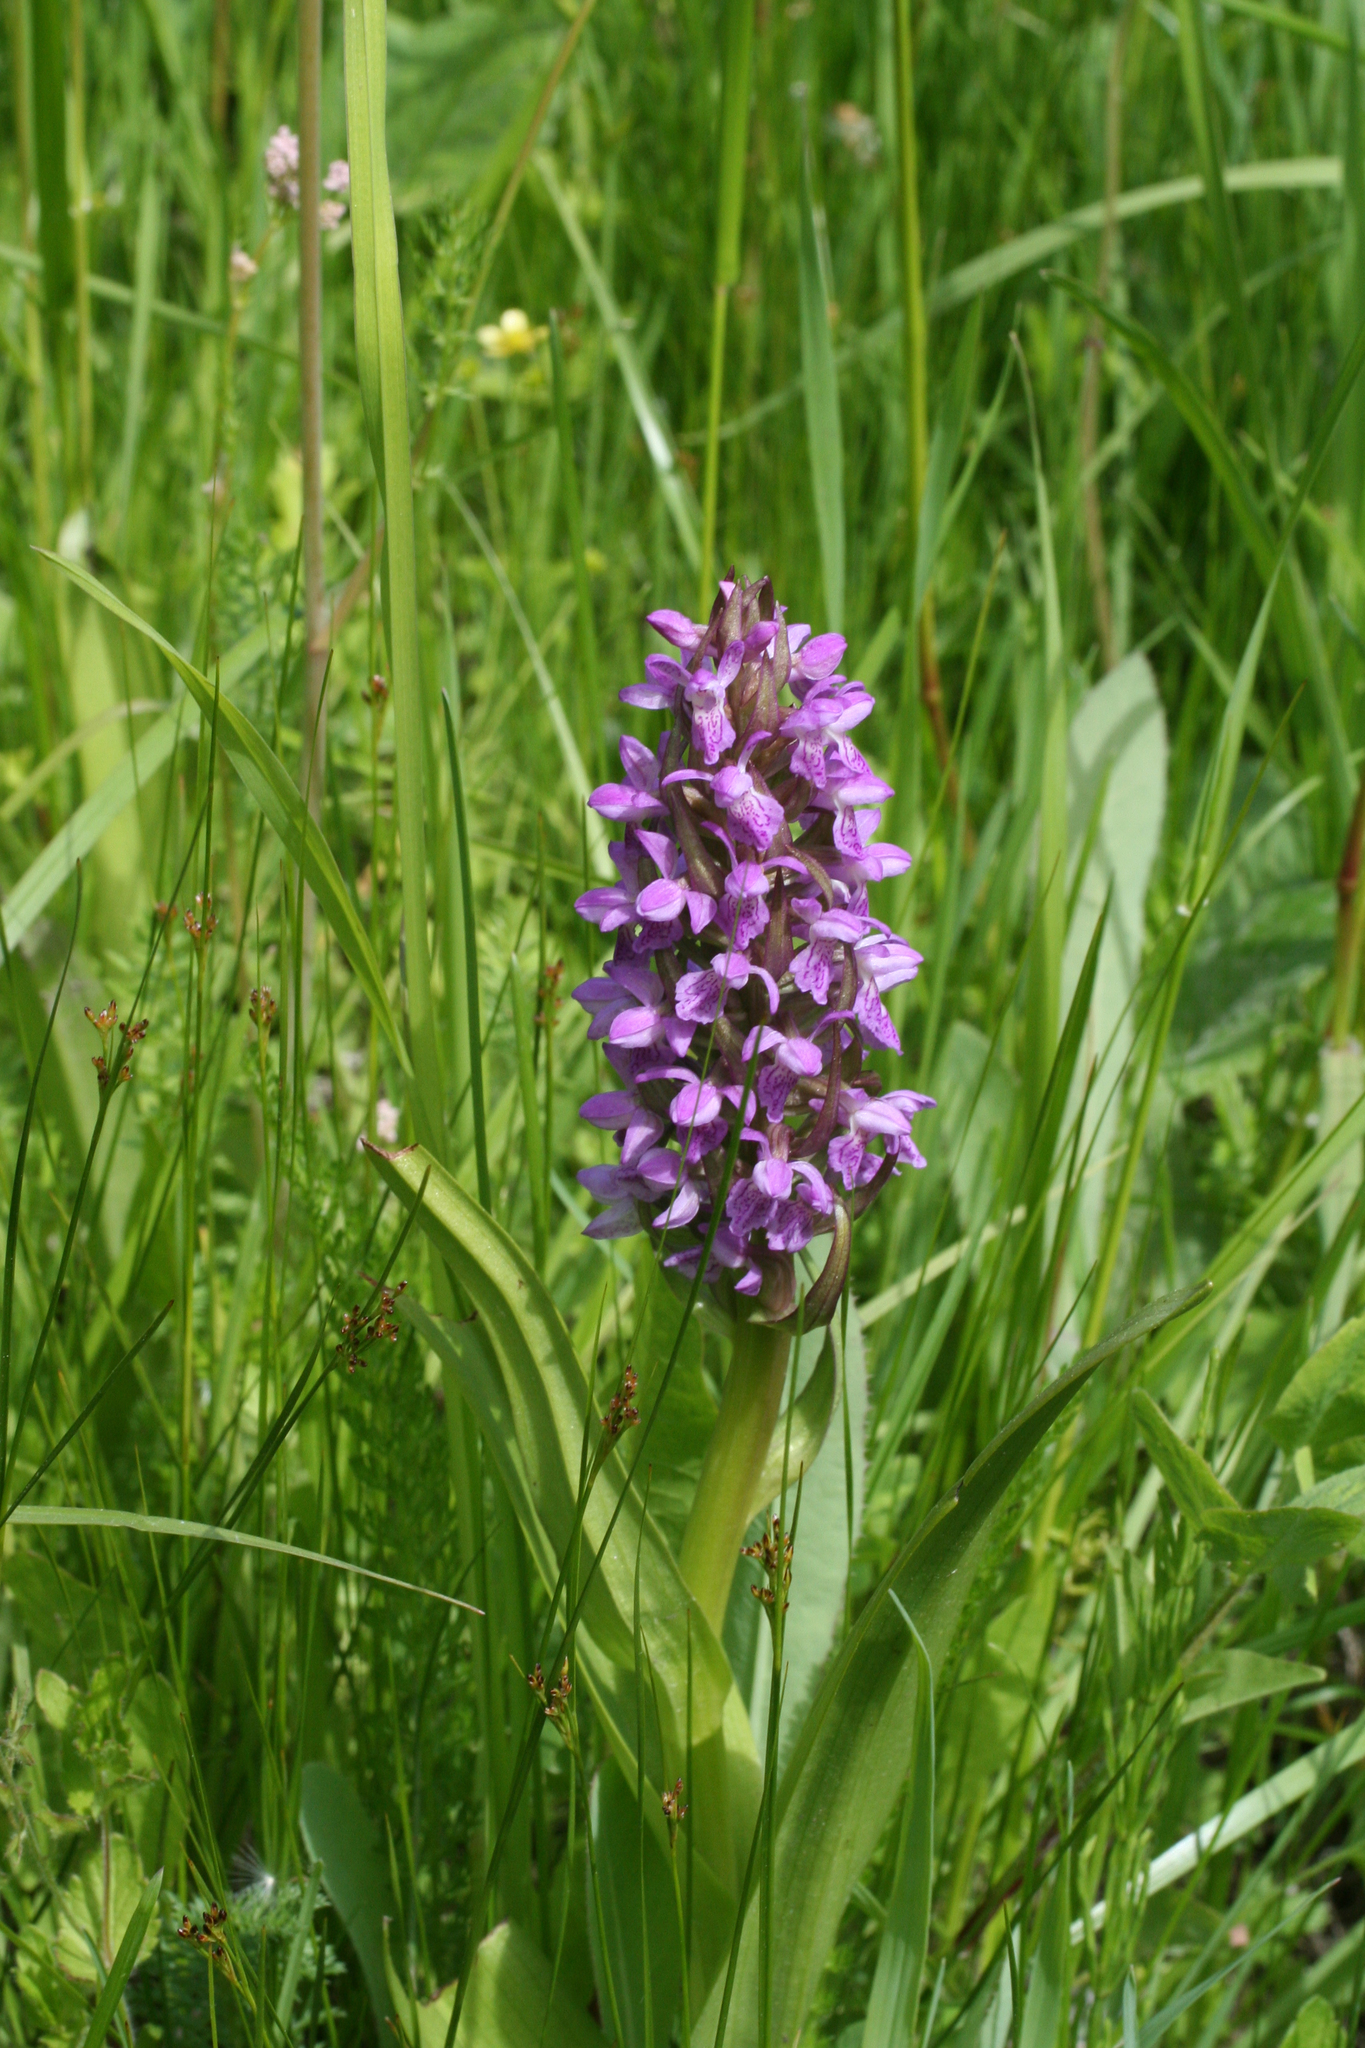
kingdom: Plantae
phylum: Tracheophyta
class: Liliopsida
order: Asparagales
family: Orchidaceae
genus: Dactylorhiza
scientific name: Dactylorhiza incarnata
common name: Early marsh-orchid
